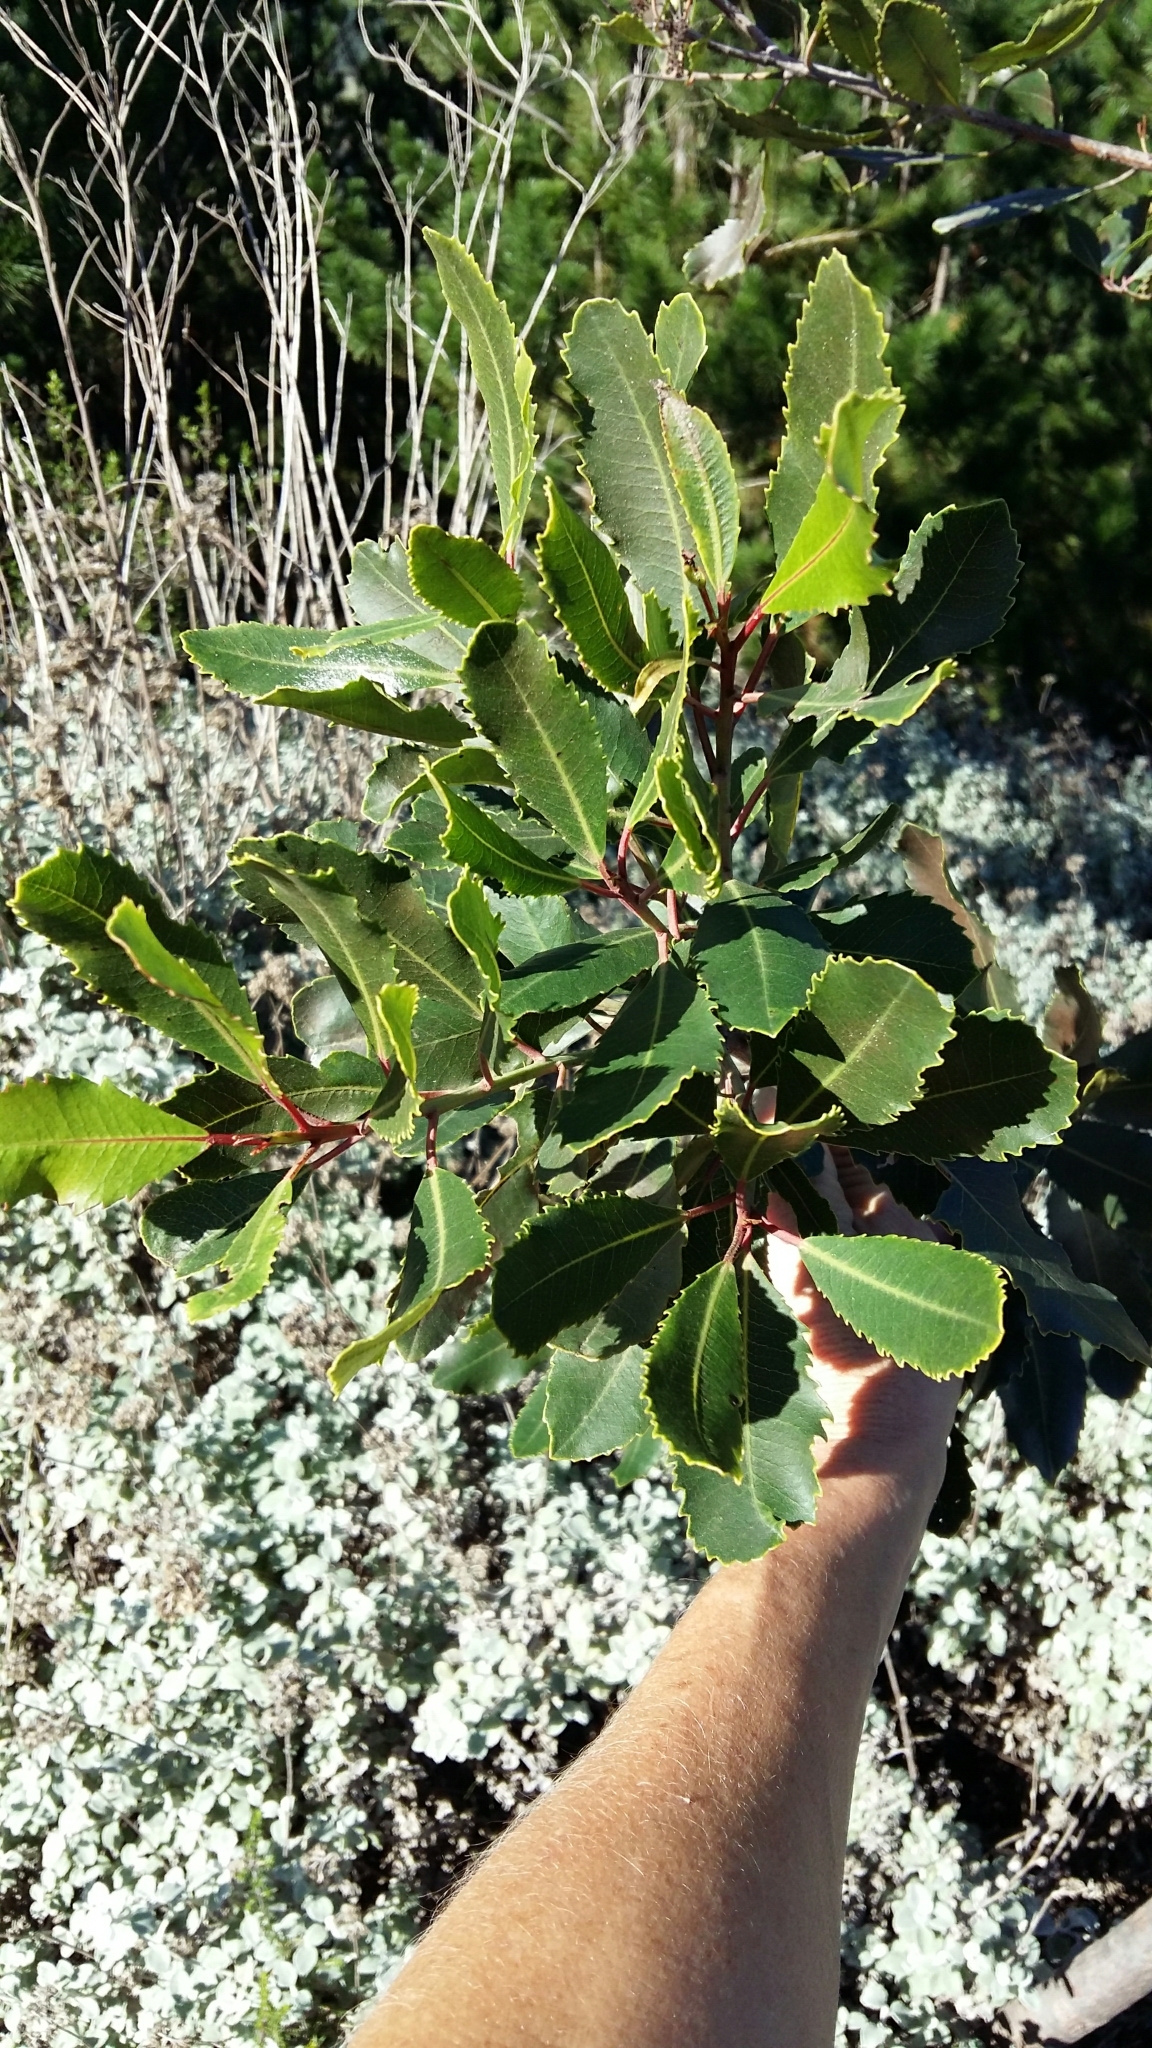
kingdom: Plantae
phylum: Tracheophyta
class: Magnoliopsida
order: Sapindales
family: Anacardiaceae
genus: Laurophyllus
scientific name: Laurophyllus capensis
